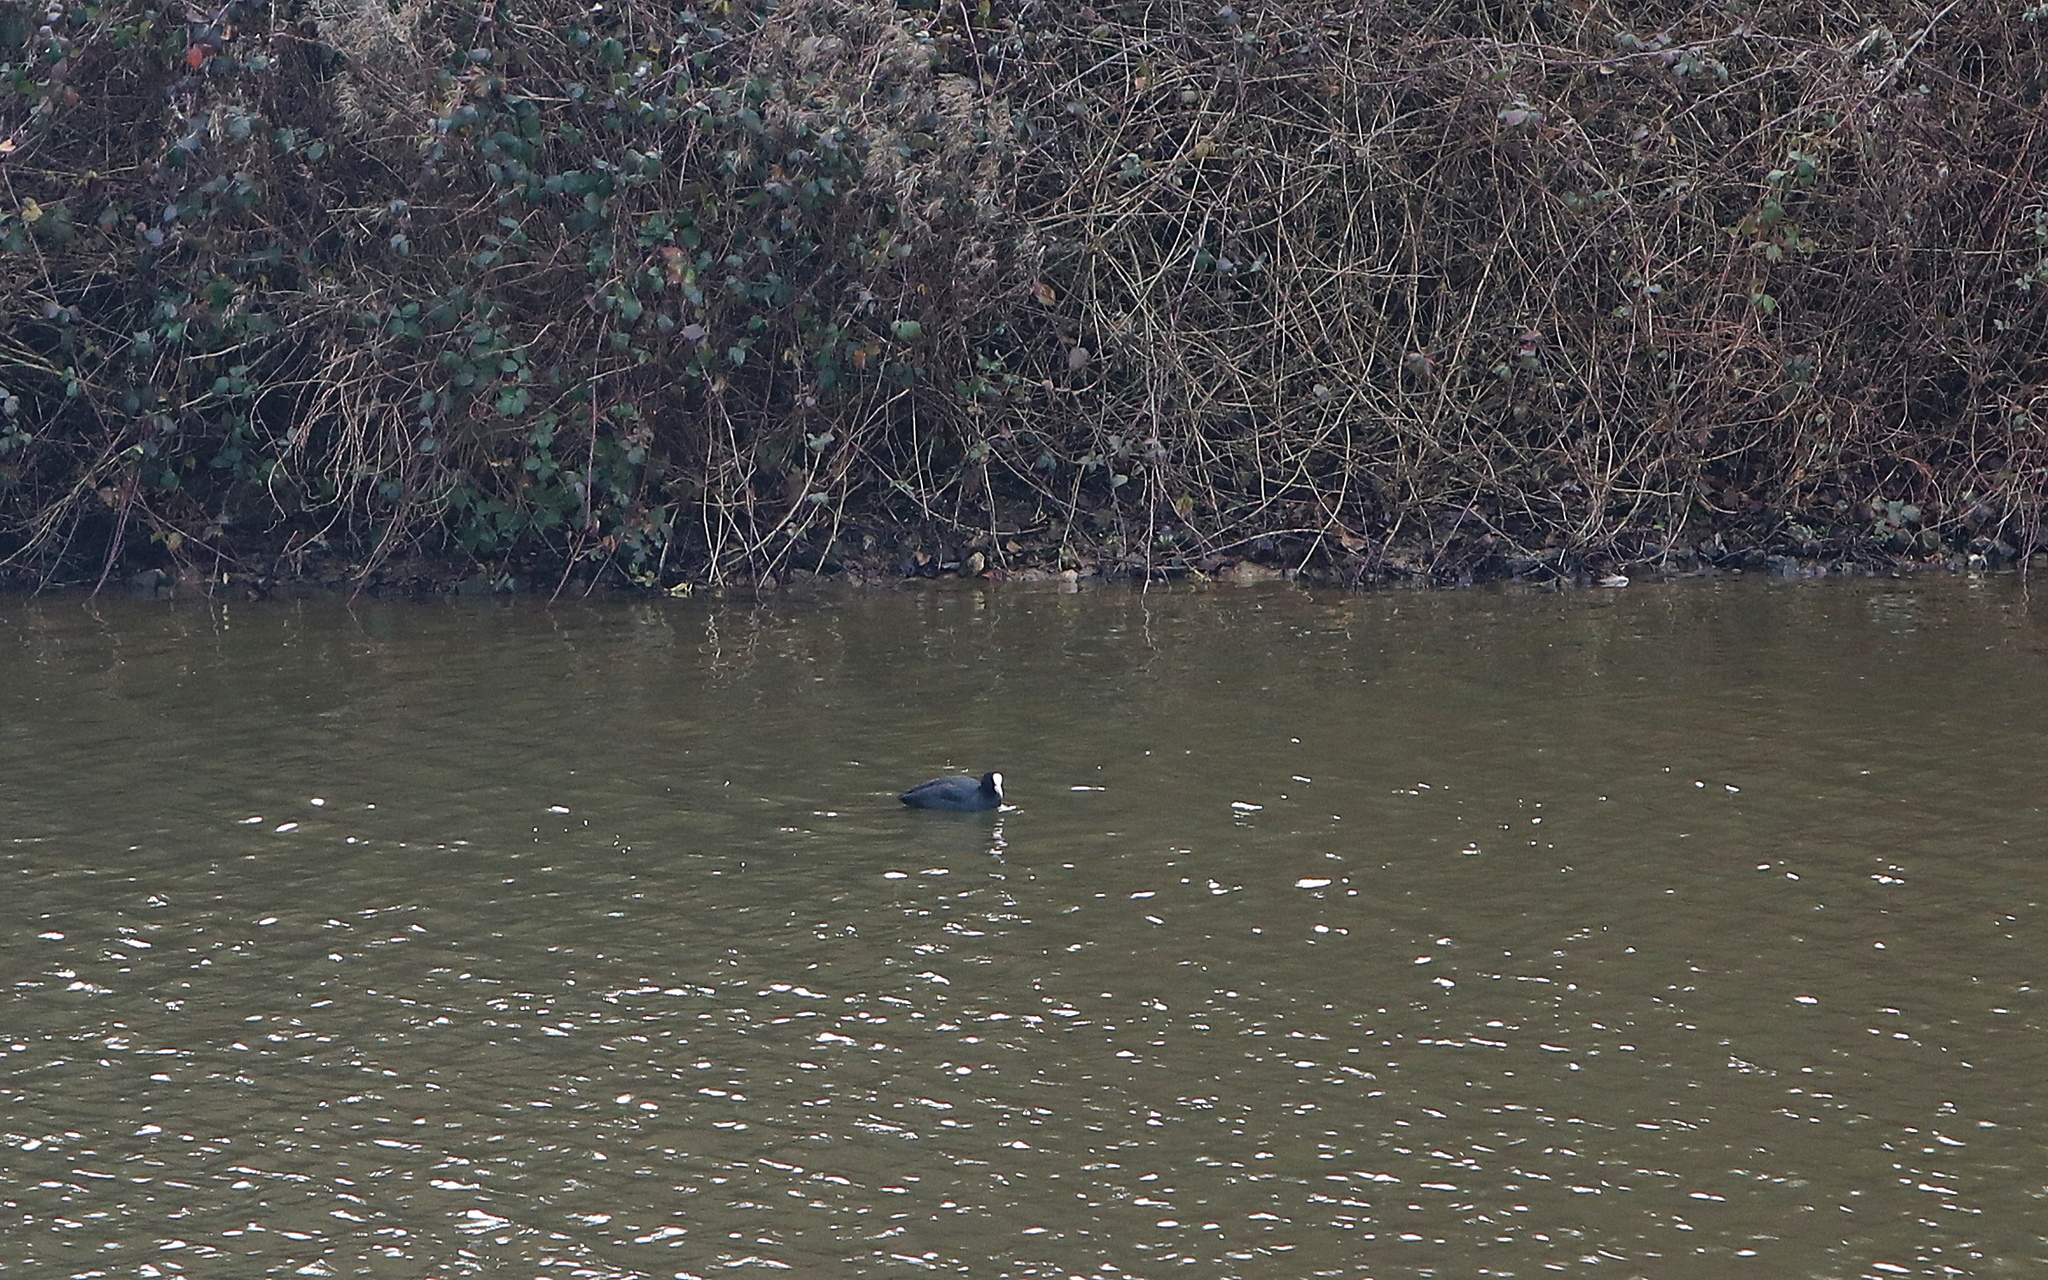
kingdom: Animalia
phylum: Chordata
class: Aves
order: Gruiformes
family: Rallidae
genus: Fulica
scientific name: Fulica atra
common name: Eurasian coot
